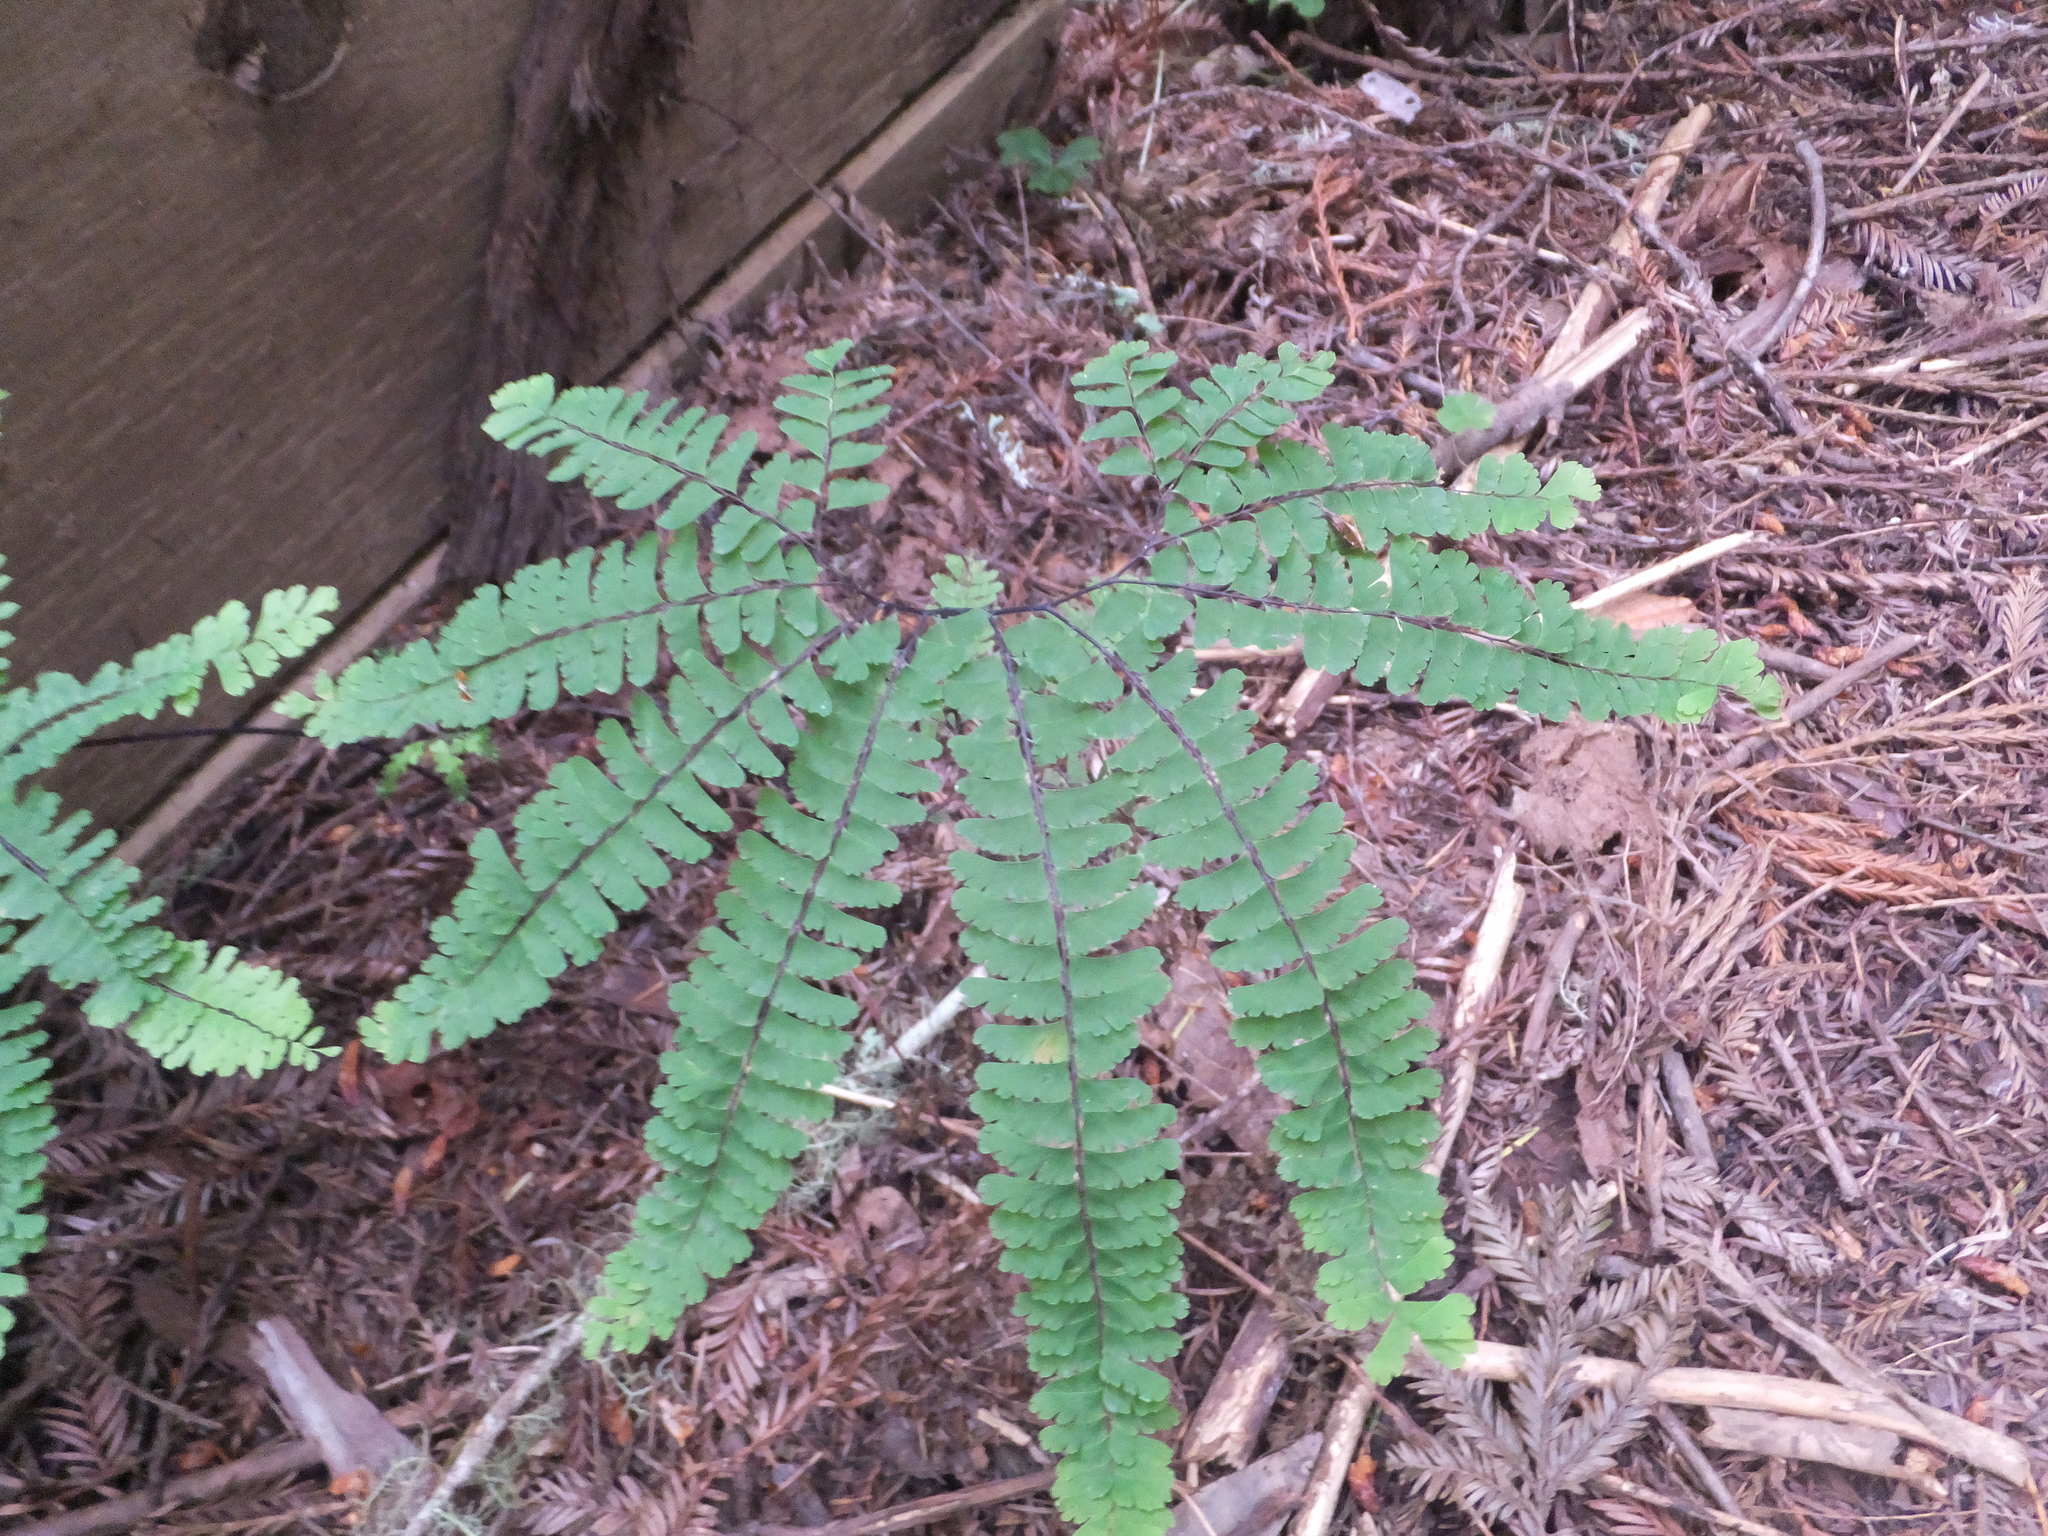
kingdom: Plantae
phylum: Tracheophyta
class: Polypodiopsida
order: Polypodiales
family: Pteridaceae
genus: Adiantum
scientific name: Adiantum aleuticum
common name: Aleutian maidenhair fern
